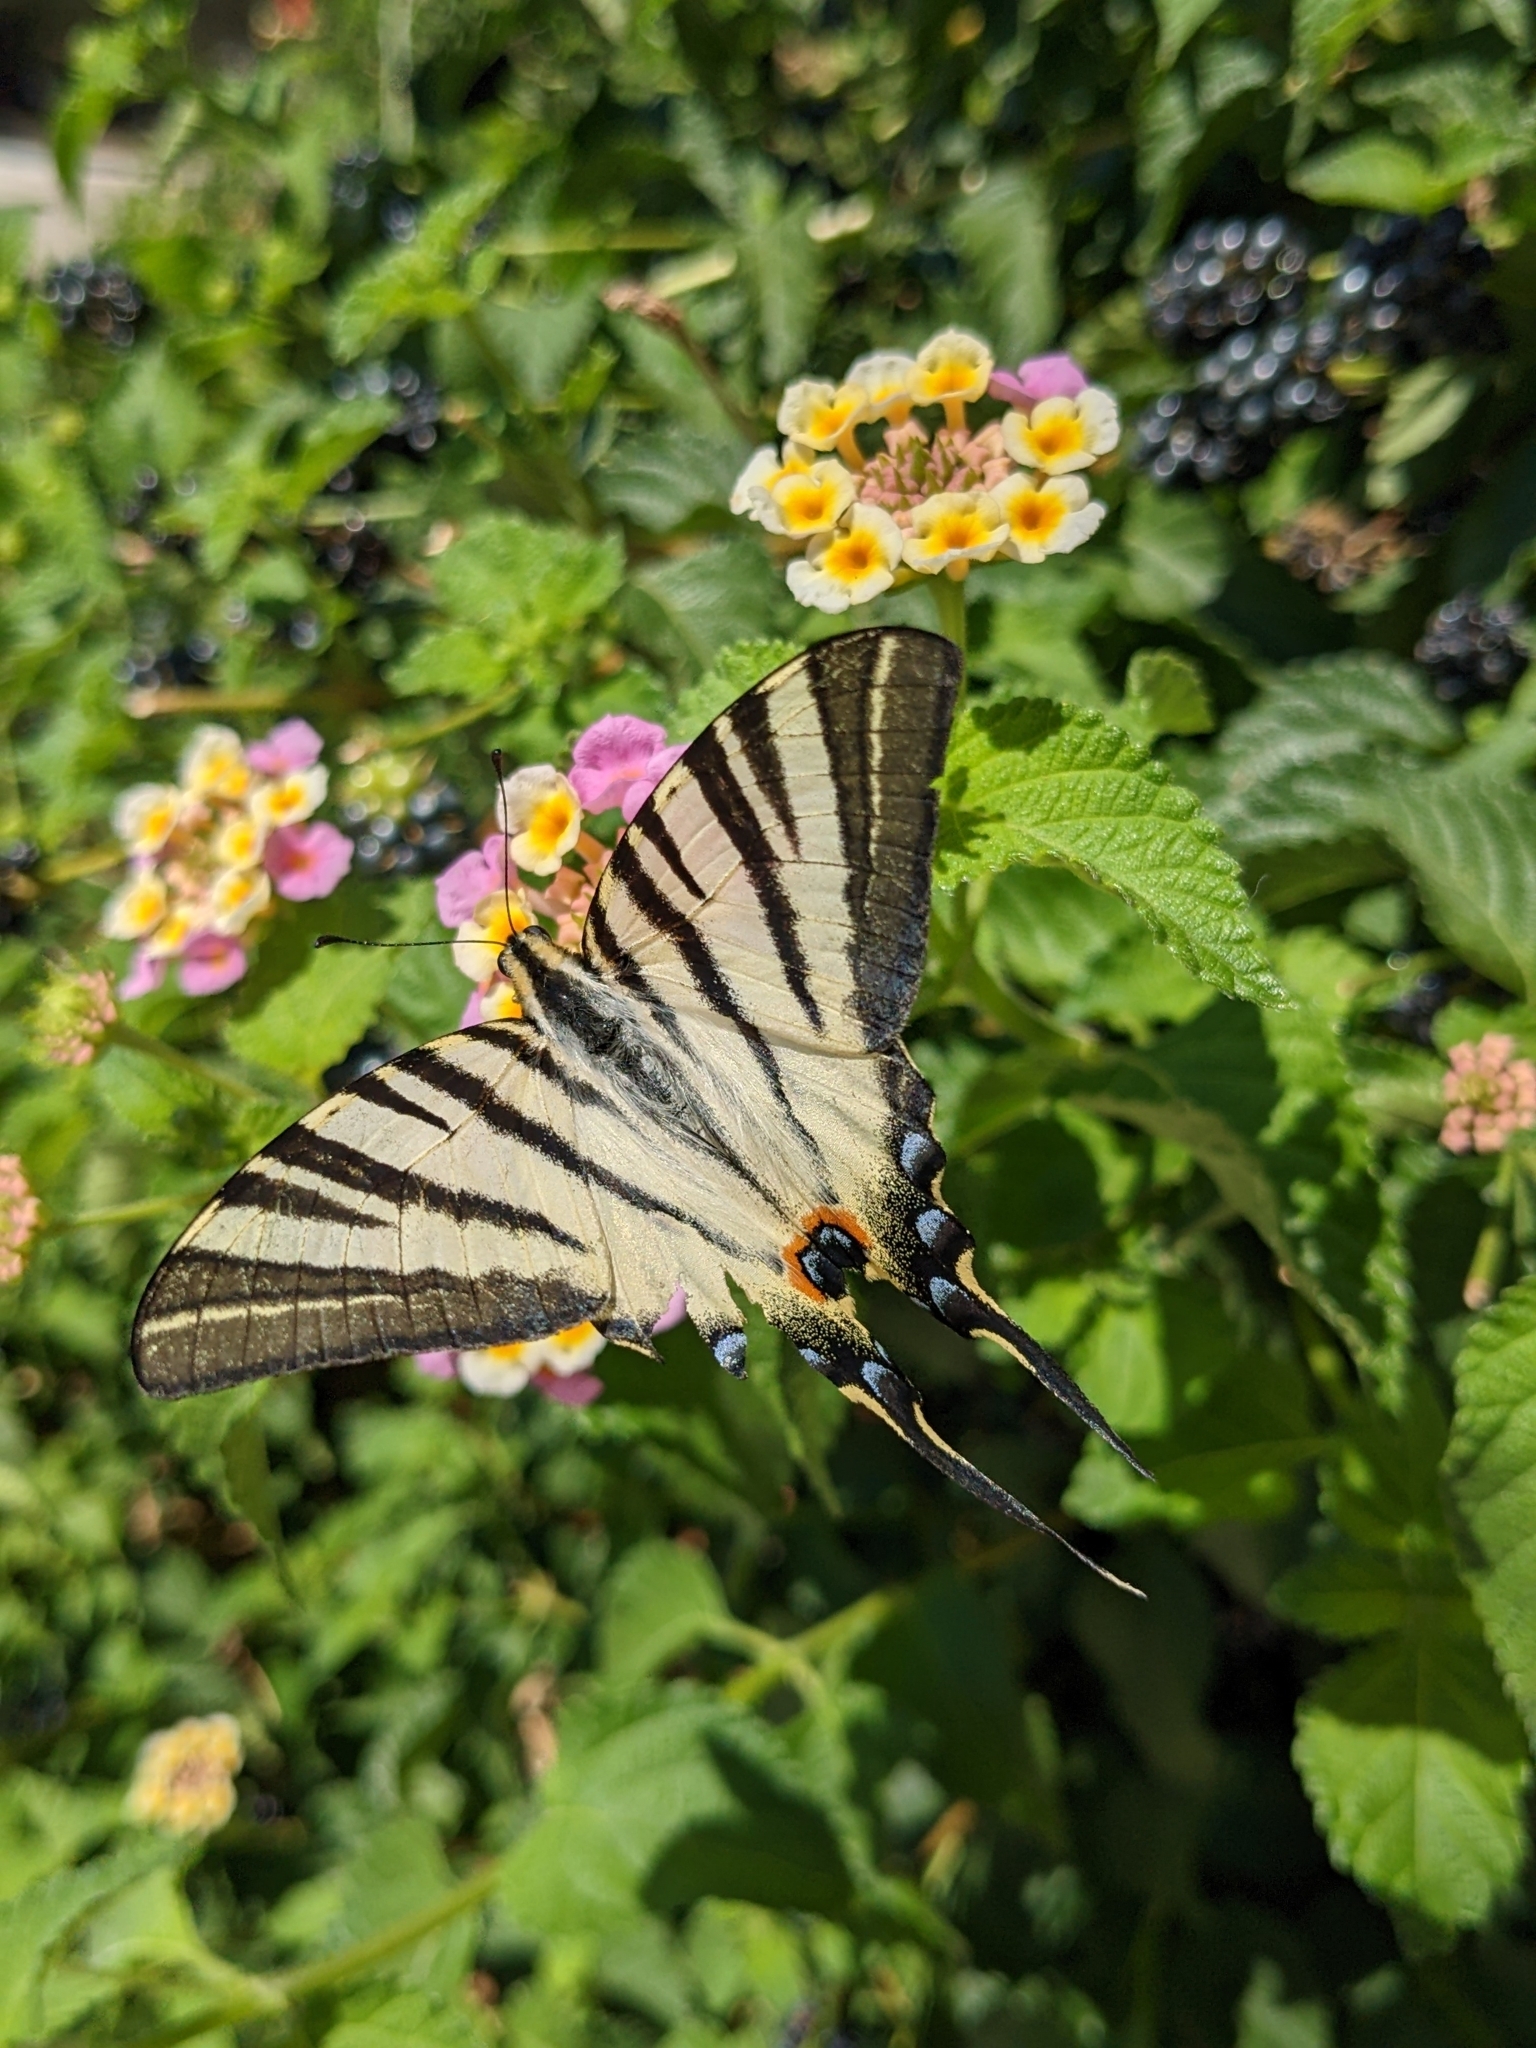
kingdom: Animalia
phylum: Arthropoda
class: Insecta
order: Lepidoptera
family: Papilionidae
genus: Iphiclides
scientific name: Iphiclides podalirius
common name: Scarce swallowtail
